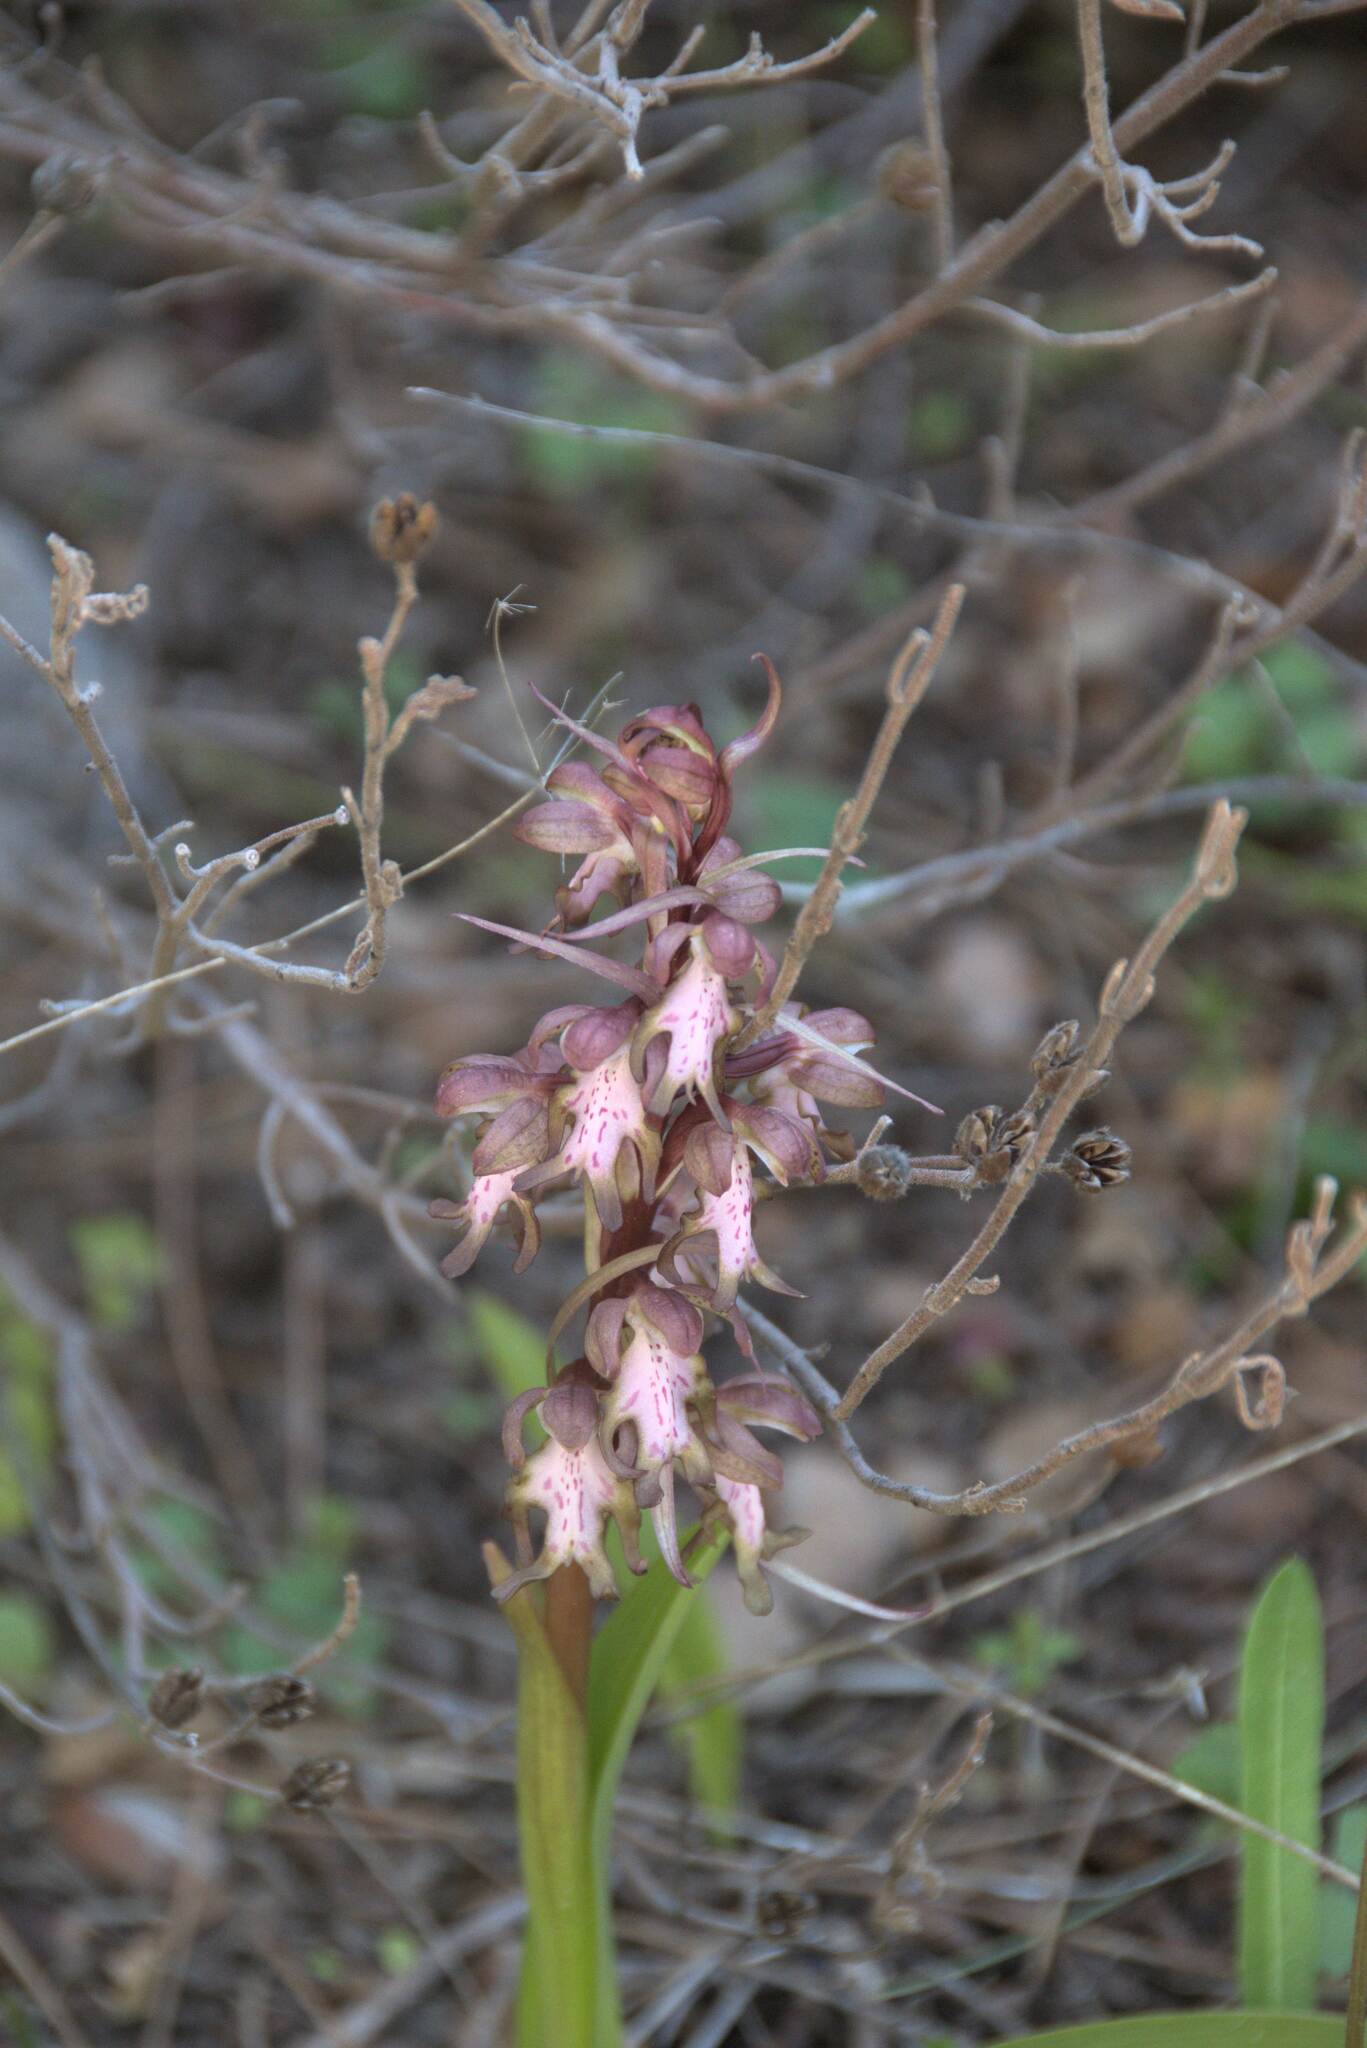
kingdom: Plantae
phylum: Tracheophyta
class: Liliopsida
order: Asparagales
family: Orchidaceae
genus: Himantoglossum
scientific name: Himantoglossum robertianum
